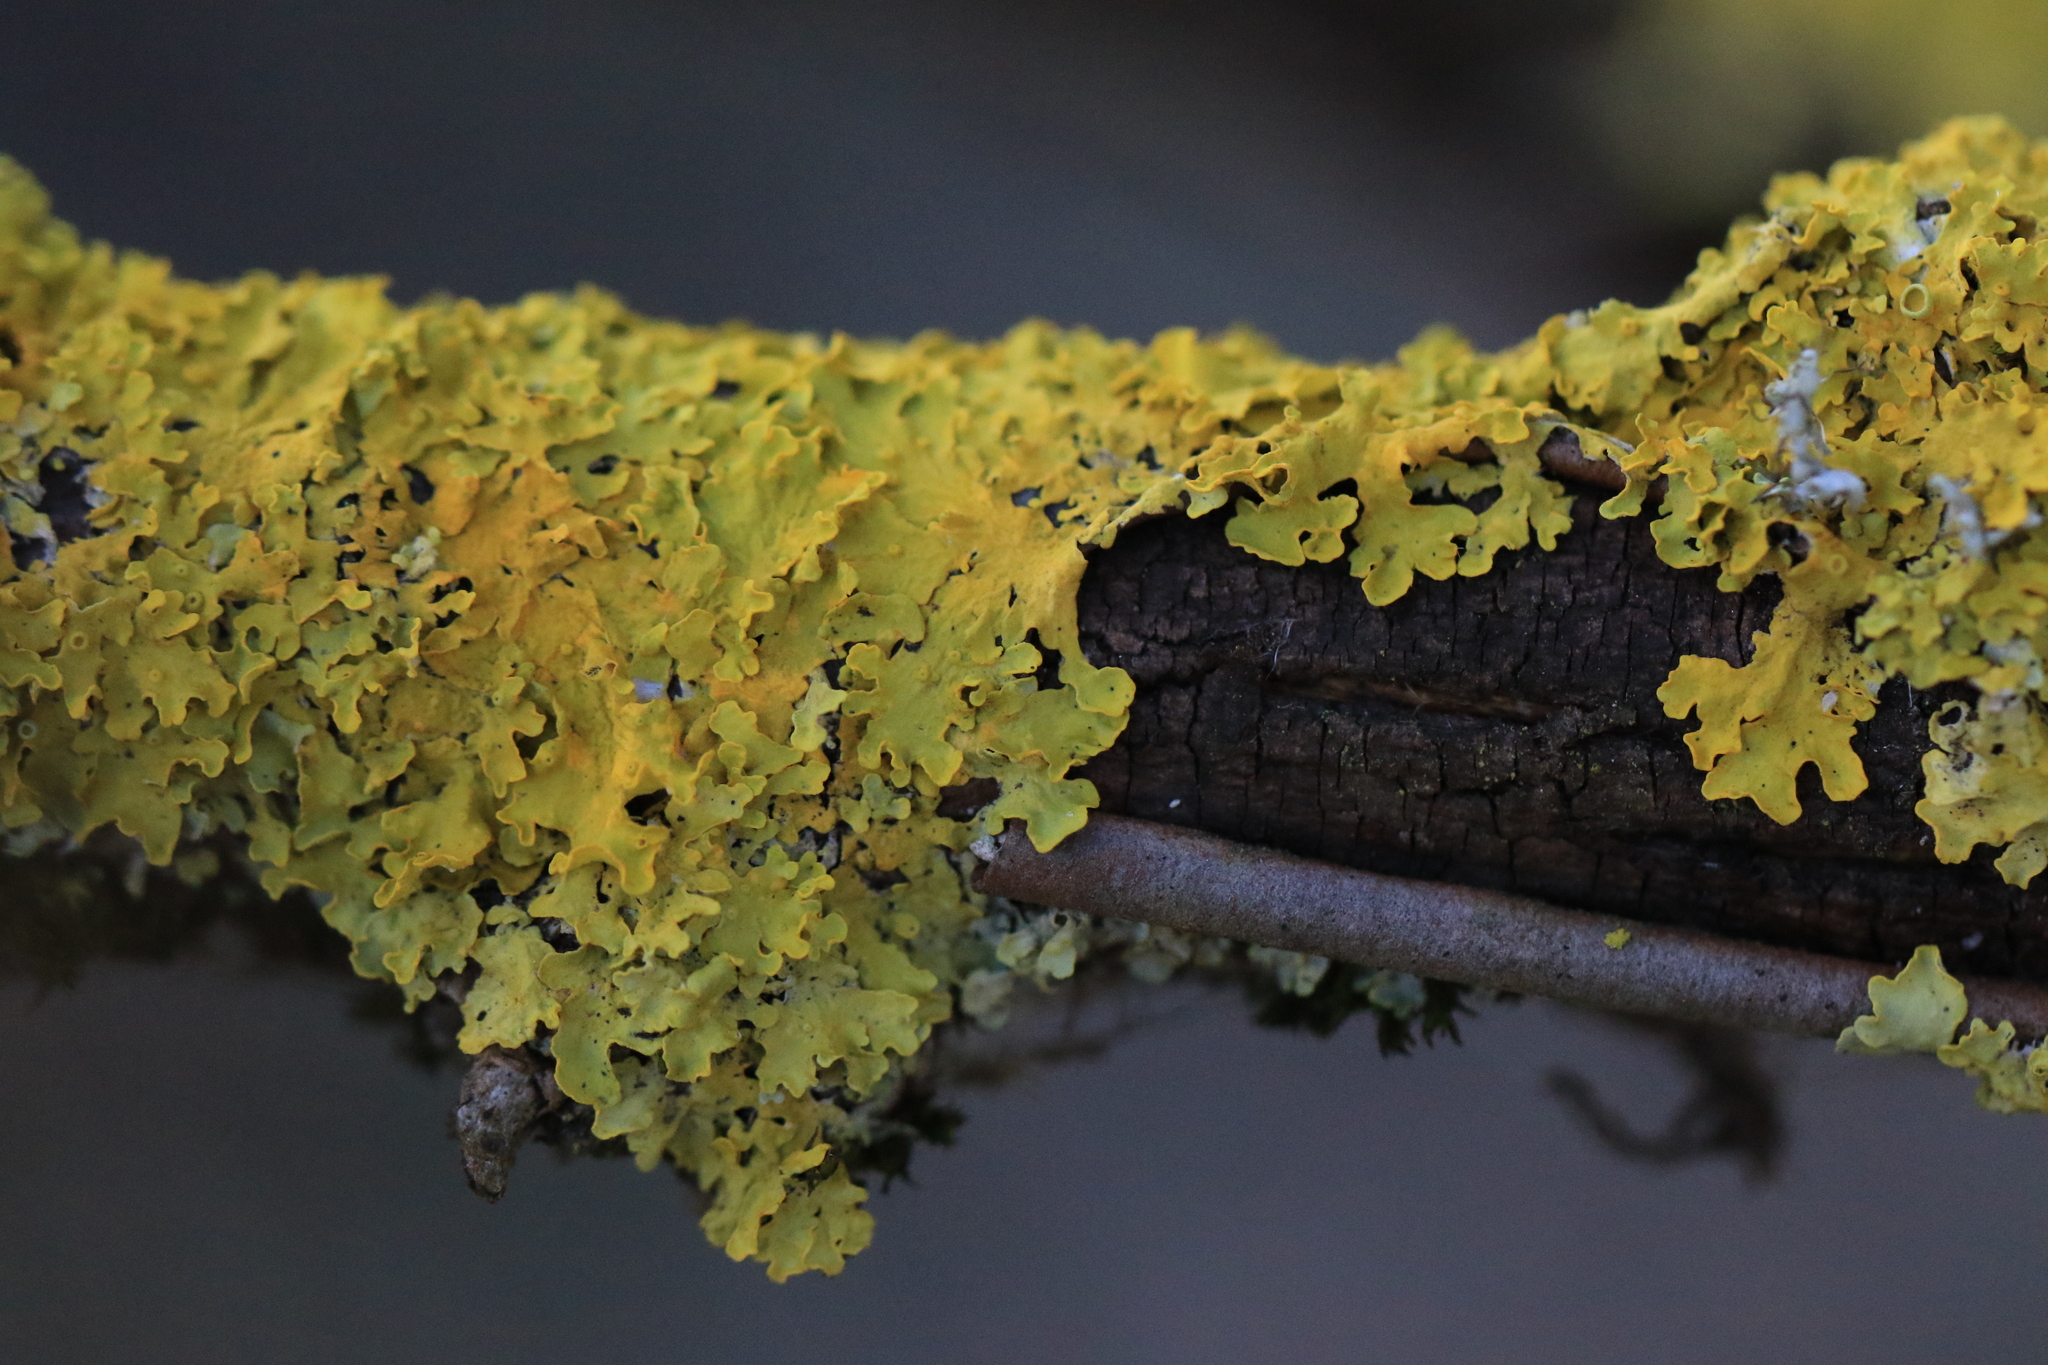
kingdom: Fungi
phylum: Ascomycota
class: Lecanoromycetes
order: Teloschistales
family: Teloschistaceae
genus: Xanthoria
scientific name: Xanthoria parietina
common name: Common orange lichen
